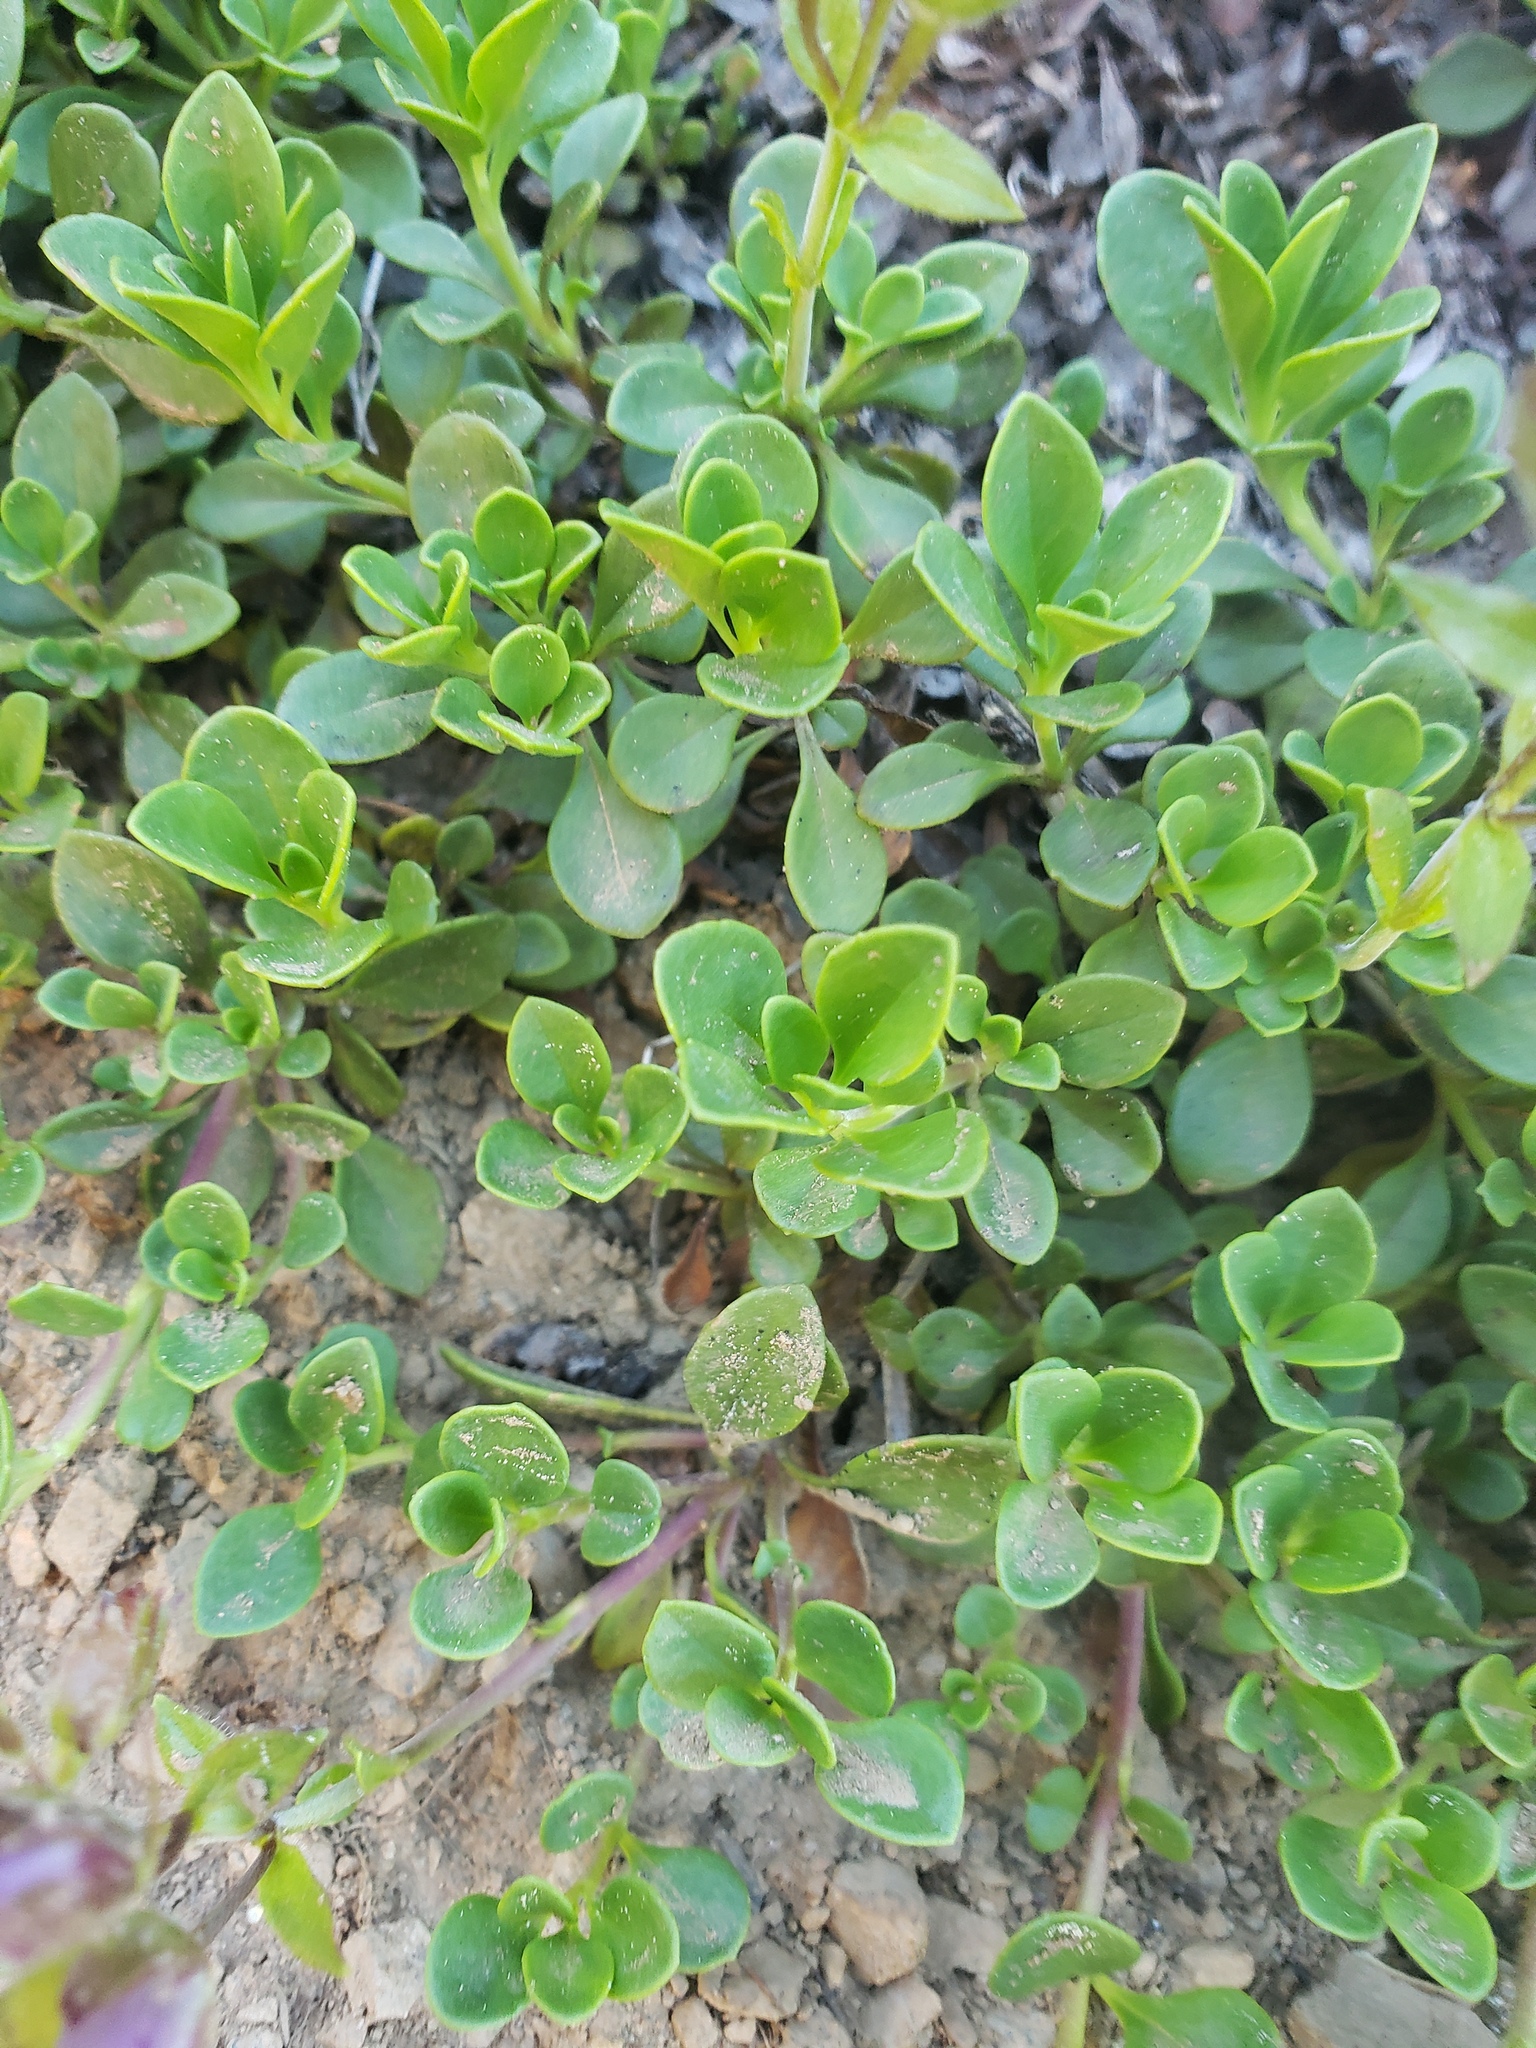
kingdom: Plantae
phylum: Tracheophyta
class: Magnoliopsida
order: Lamiales
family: Plantaginaceae
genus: Penstemon
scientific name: Penstemon davidsonii
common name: Davidson's penstemon
